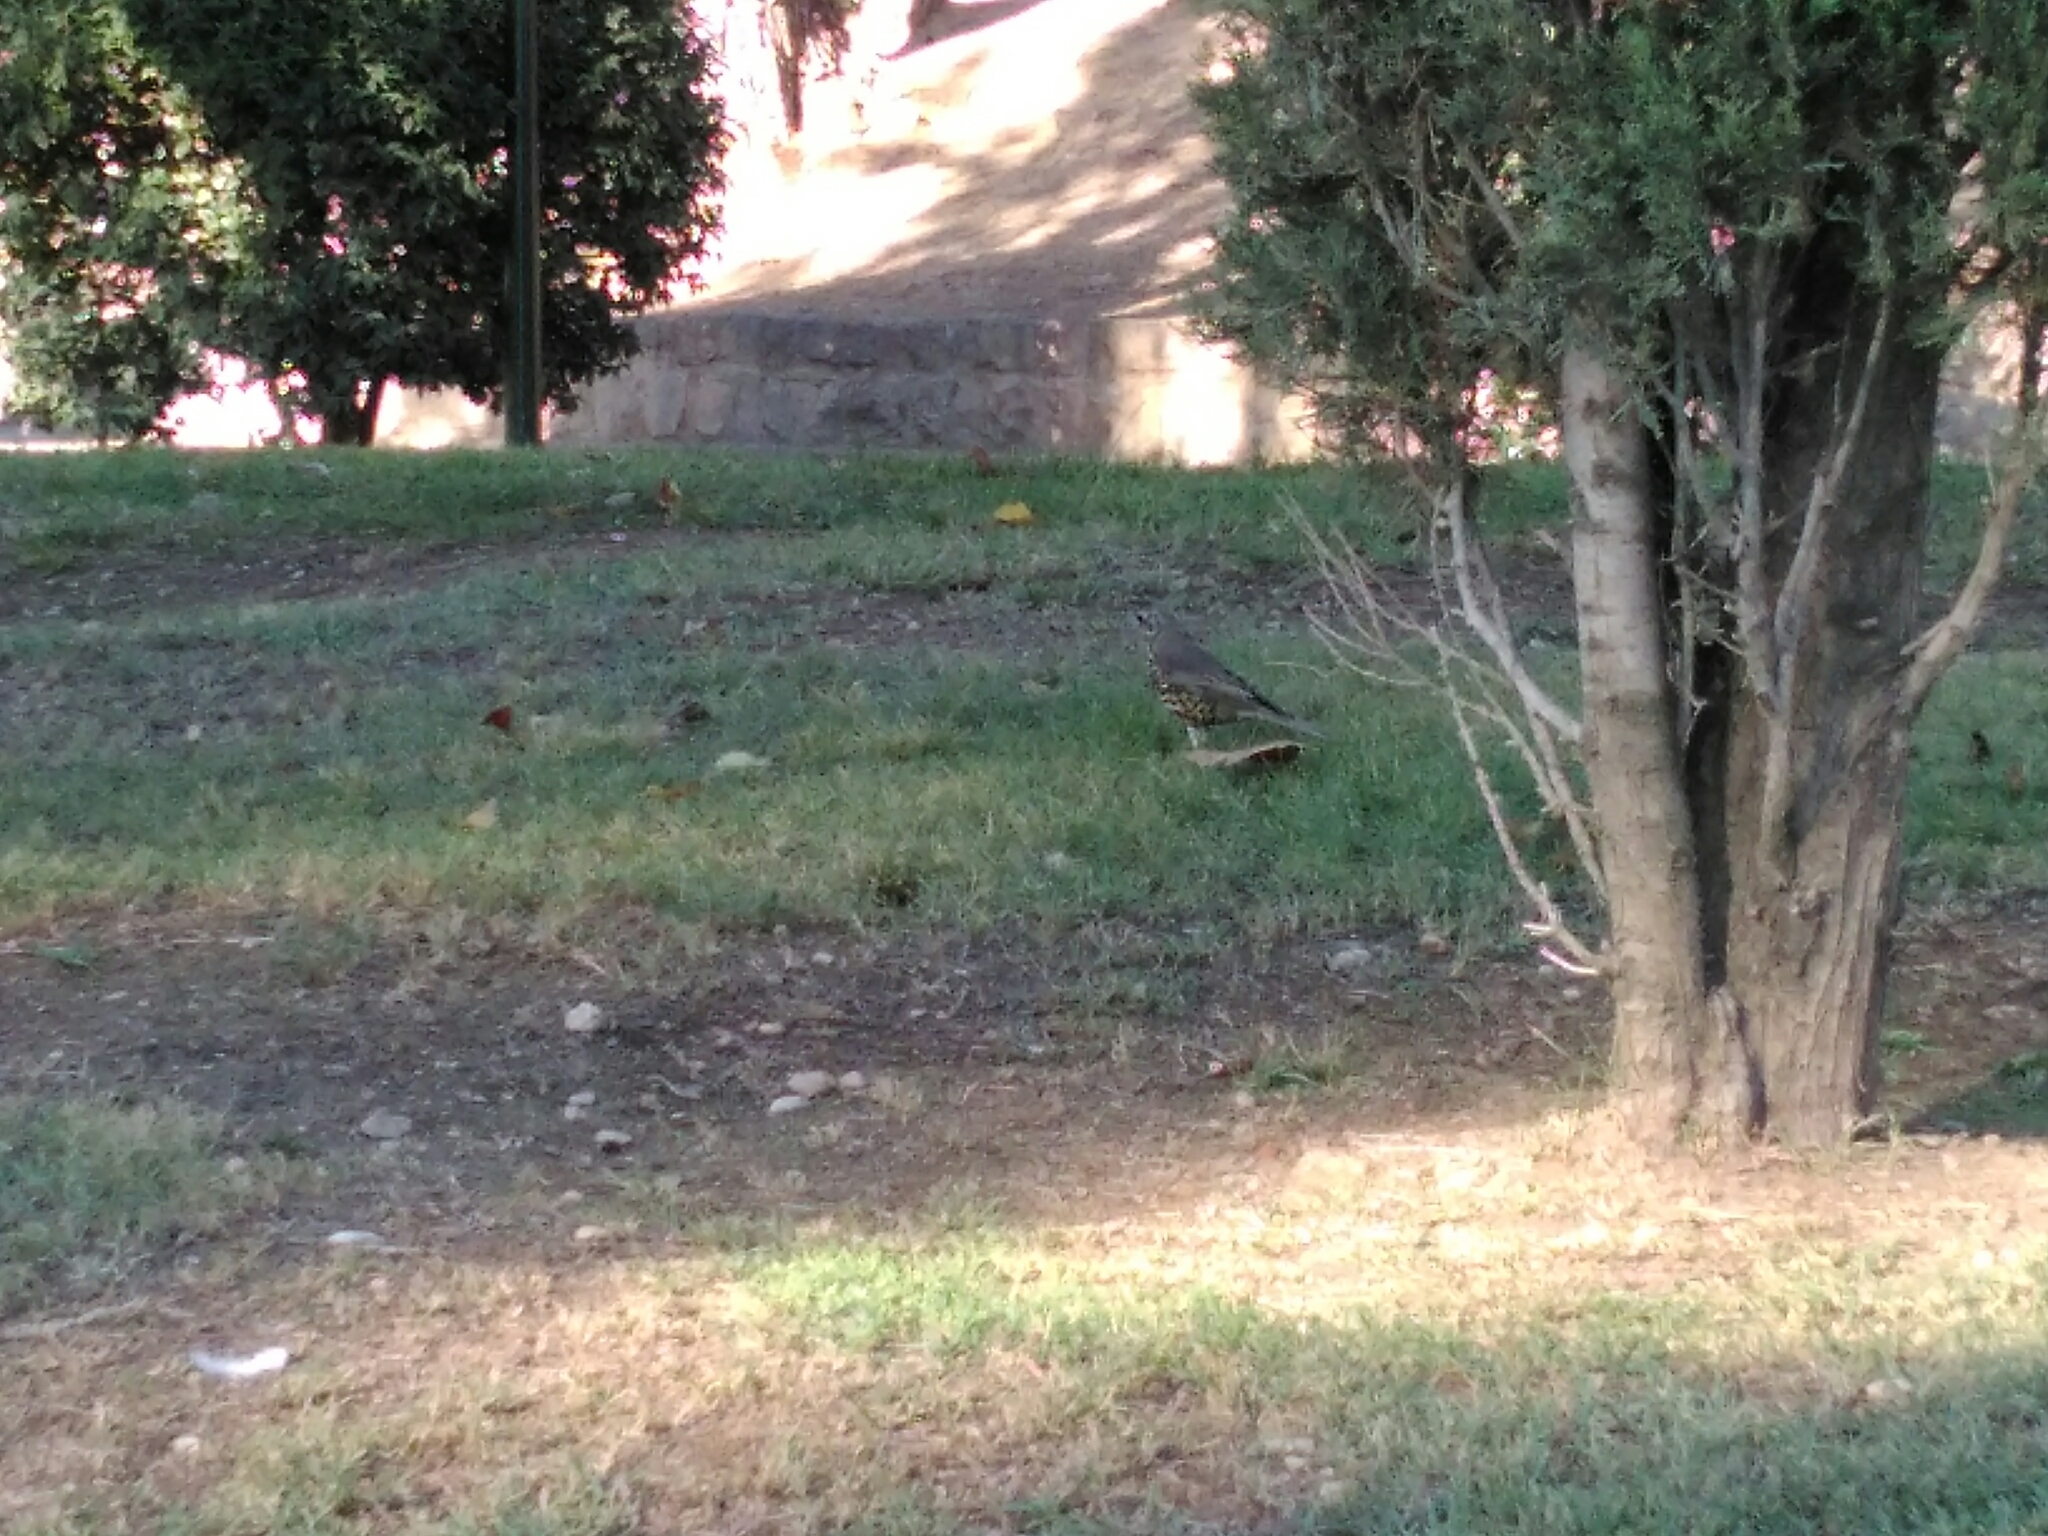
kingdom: Animalia
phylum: Chordata
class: Aves
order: Passeriformes
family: Turdidae
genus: Turdus
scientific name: Turdus viscivorus
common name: Mistle thrush
